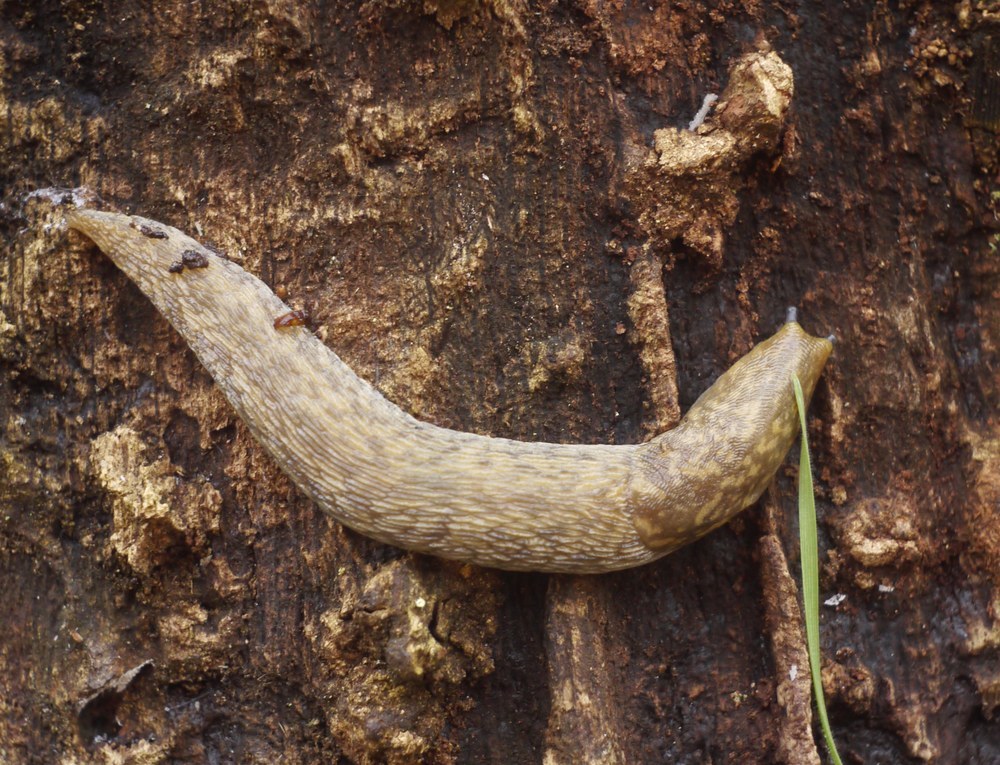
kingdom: Animalia
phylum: Mollusca
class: Gastropoda
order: Stylommatophora
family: Limacidae
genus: Limacus
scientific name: Limacus
